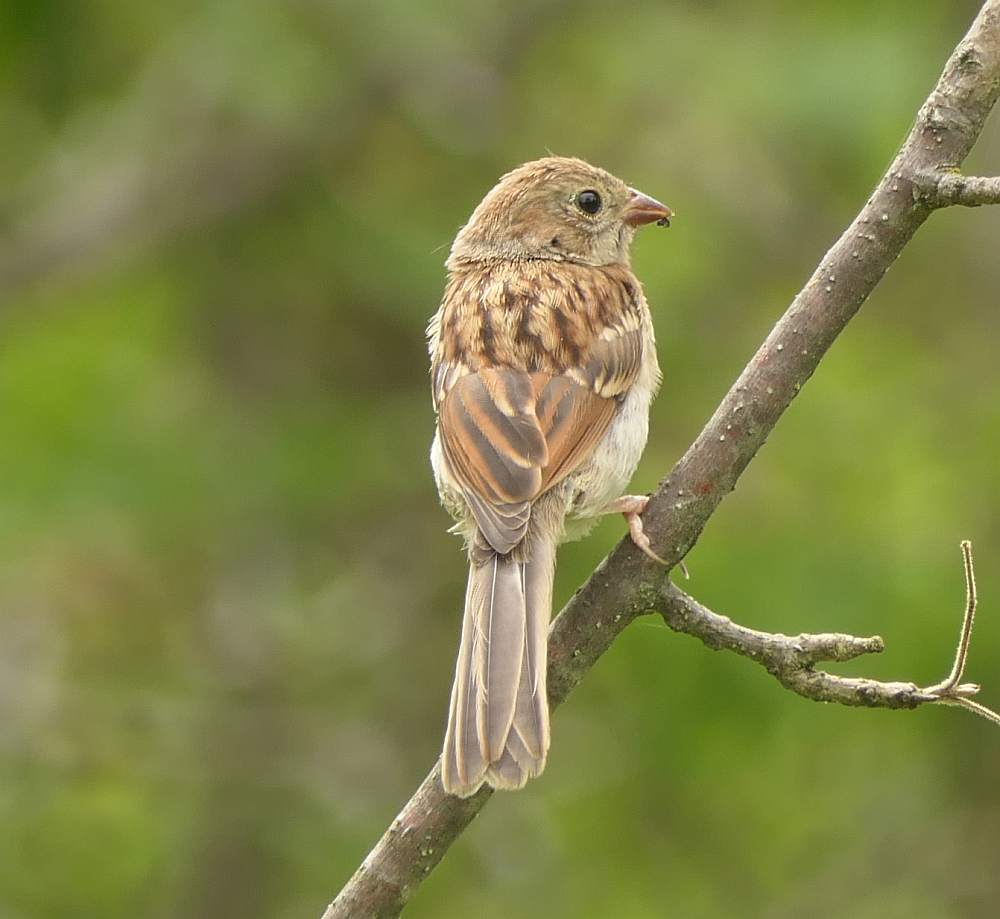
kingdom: Animalia
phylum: Chordata
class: Aves
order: Passeriformes
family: Passerellidae
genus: Spizella
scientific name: Spizella pusilla
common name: Field sparrow
